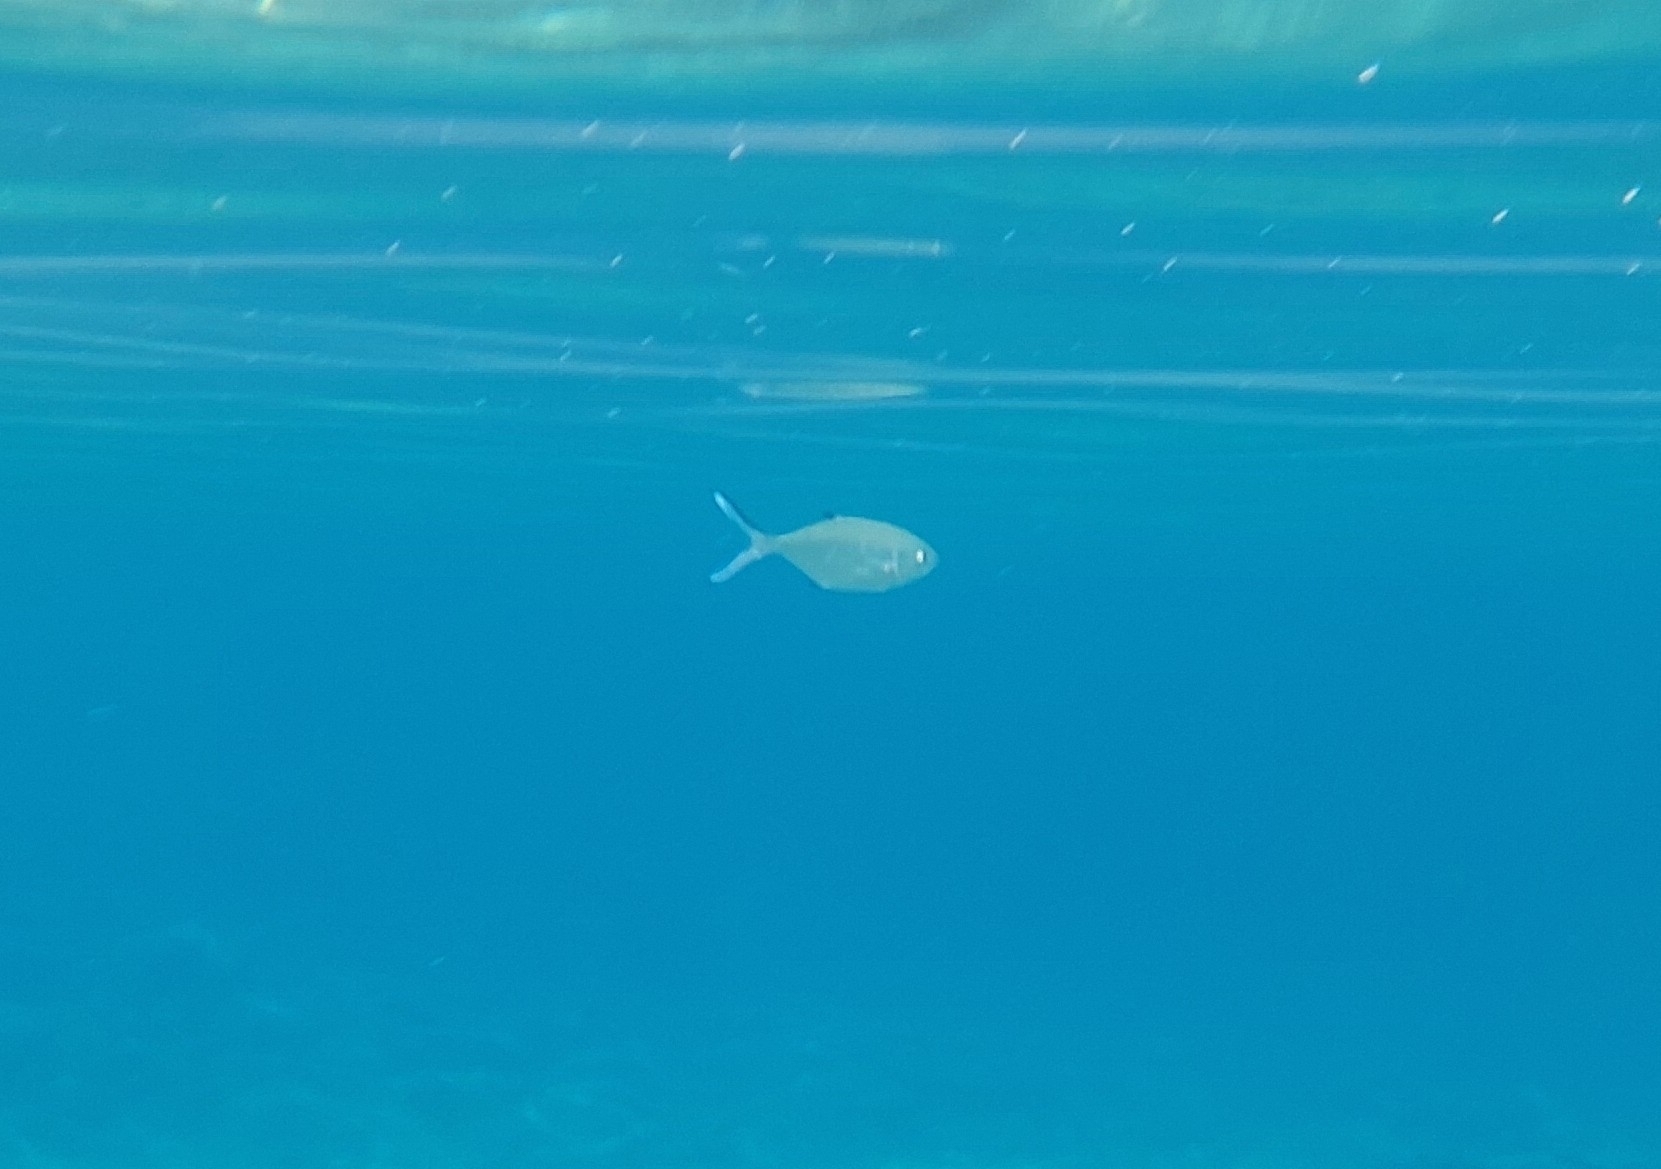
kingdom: Animalia
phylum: Chordata
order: Perciformes
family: Carangidae
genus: Trachinotus
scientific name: Trachinotus ovatus
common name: Pompano
